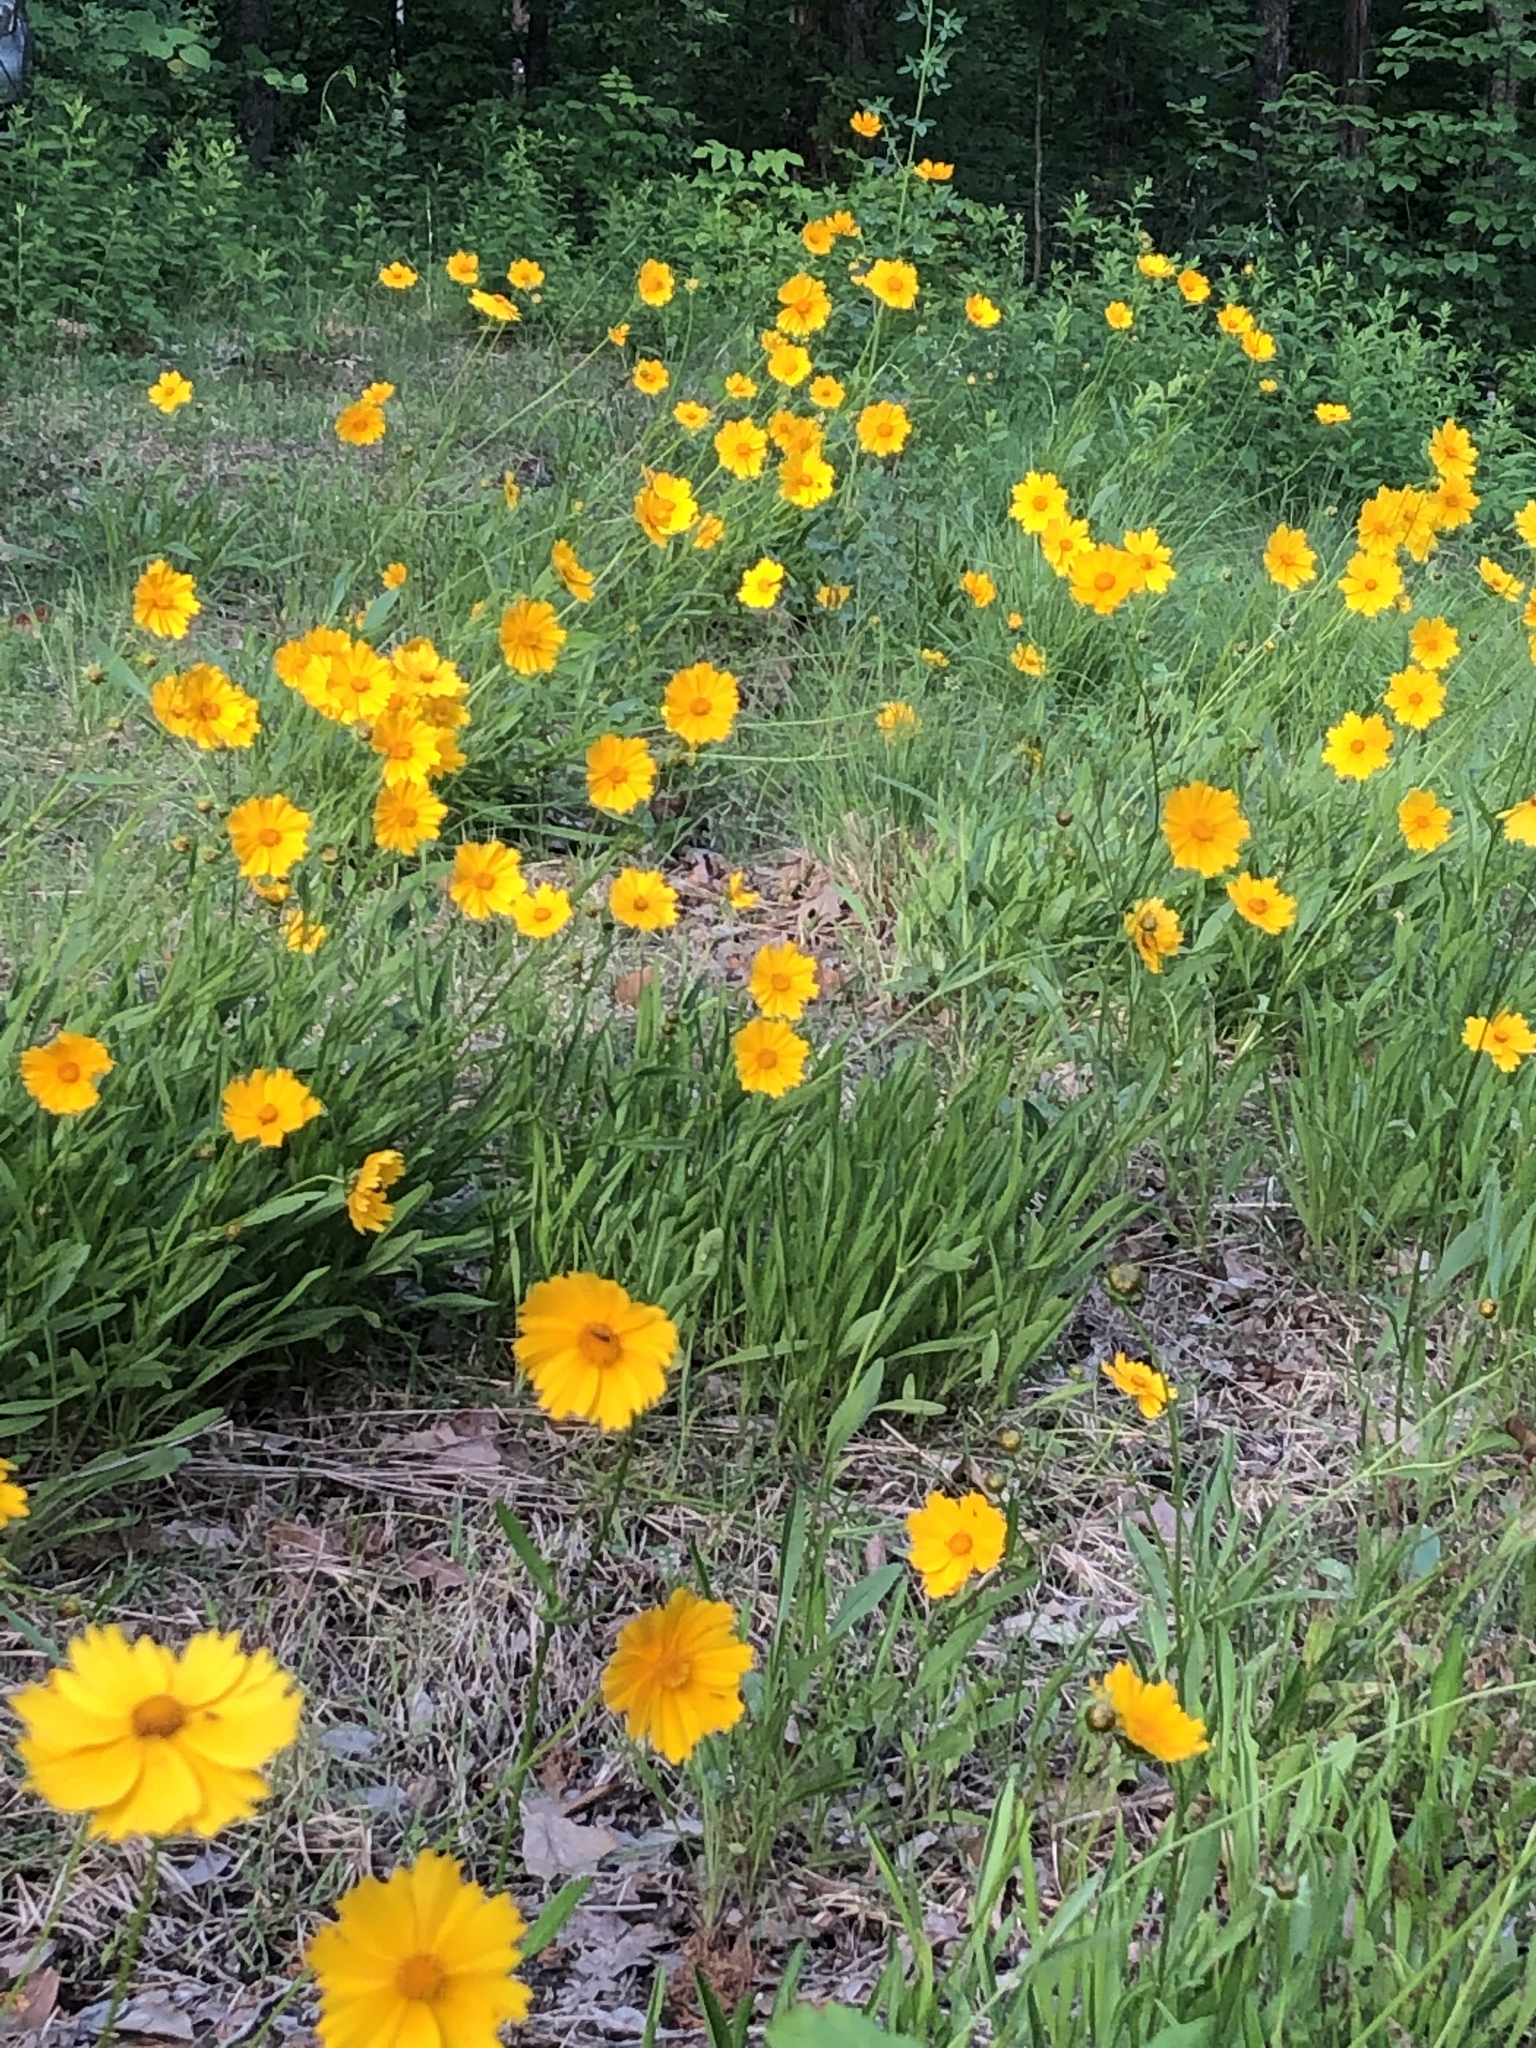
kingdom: Plantae
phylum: Tracheophyta
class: Magnoliopsida
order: Asterales
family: Asteraceae
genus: Coreopsis
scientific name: Coreopsis lanceolata
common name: Garden coreopsis
